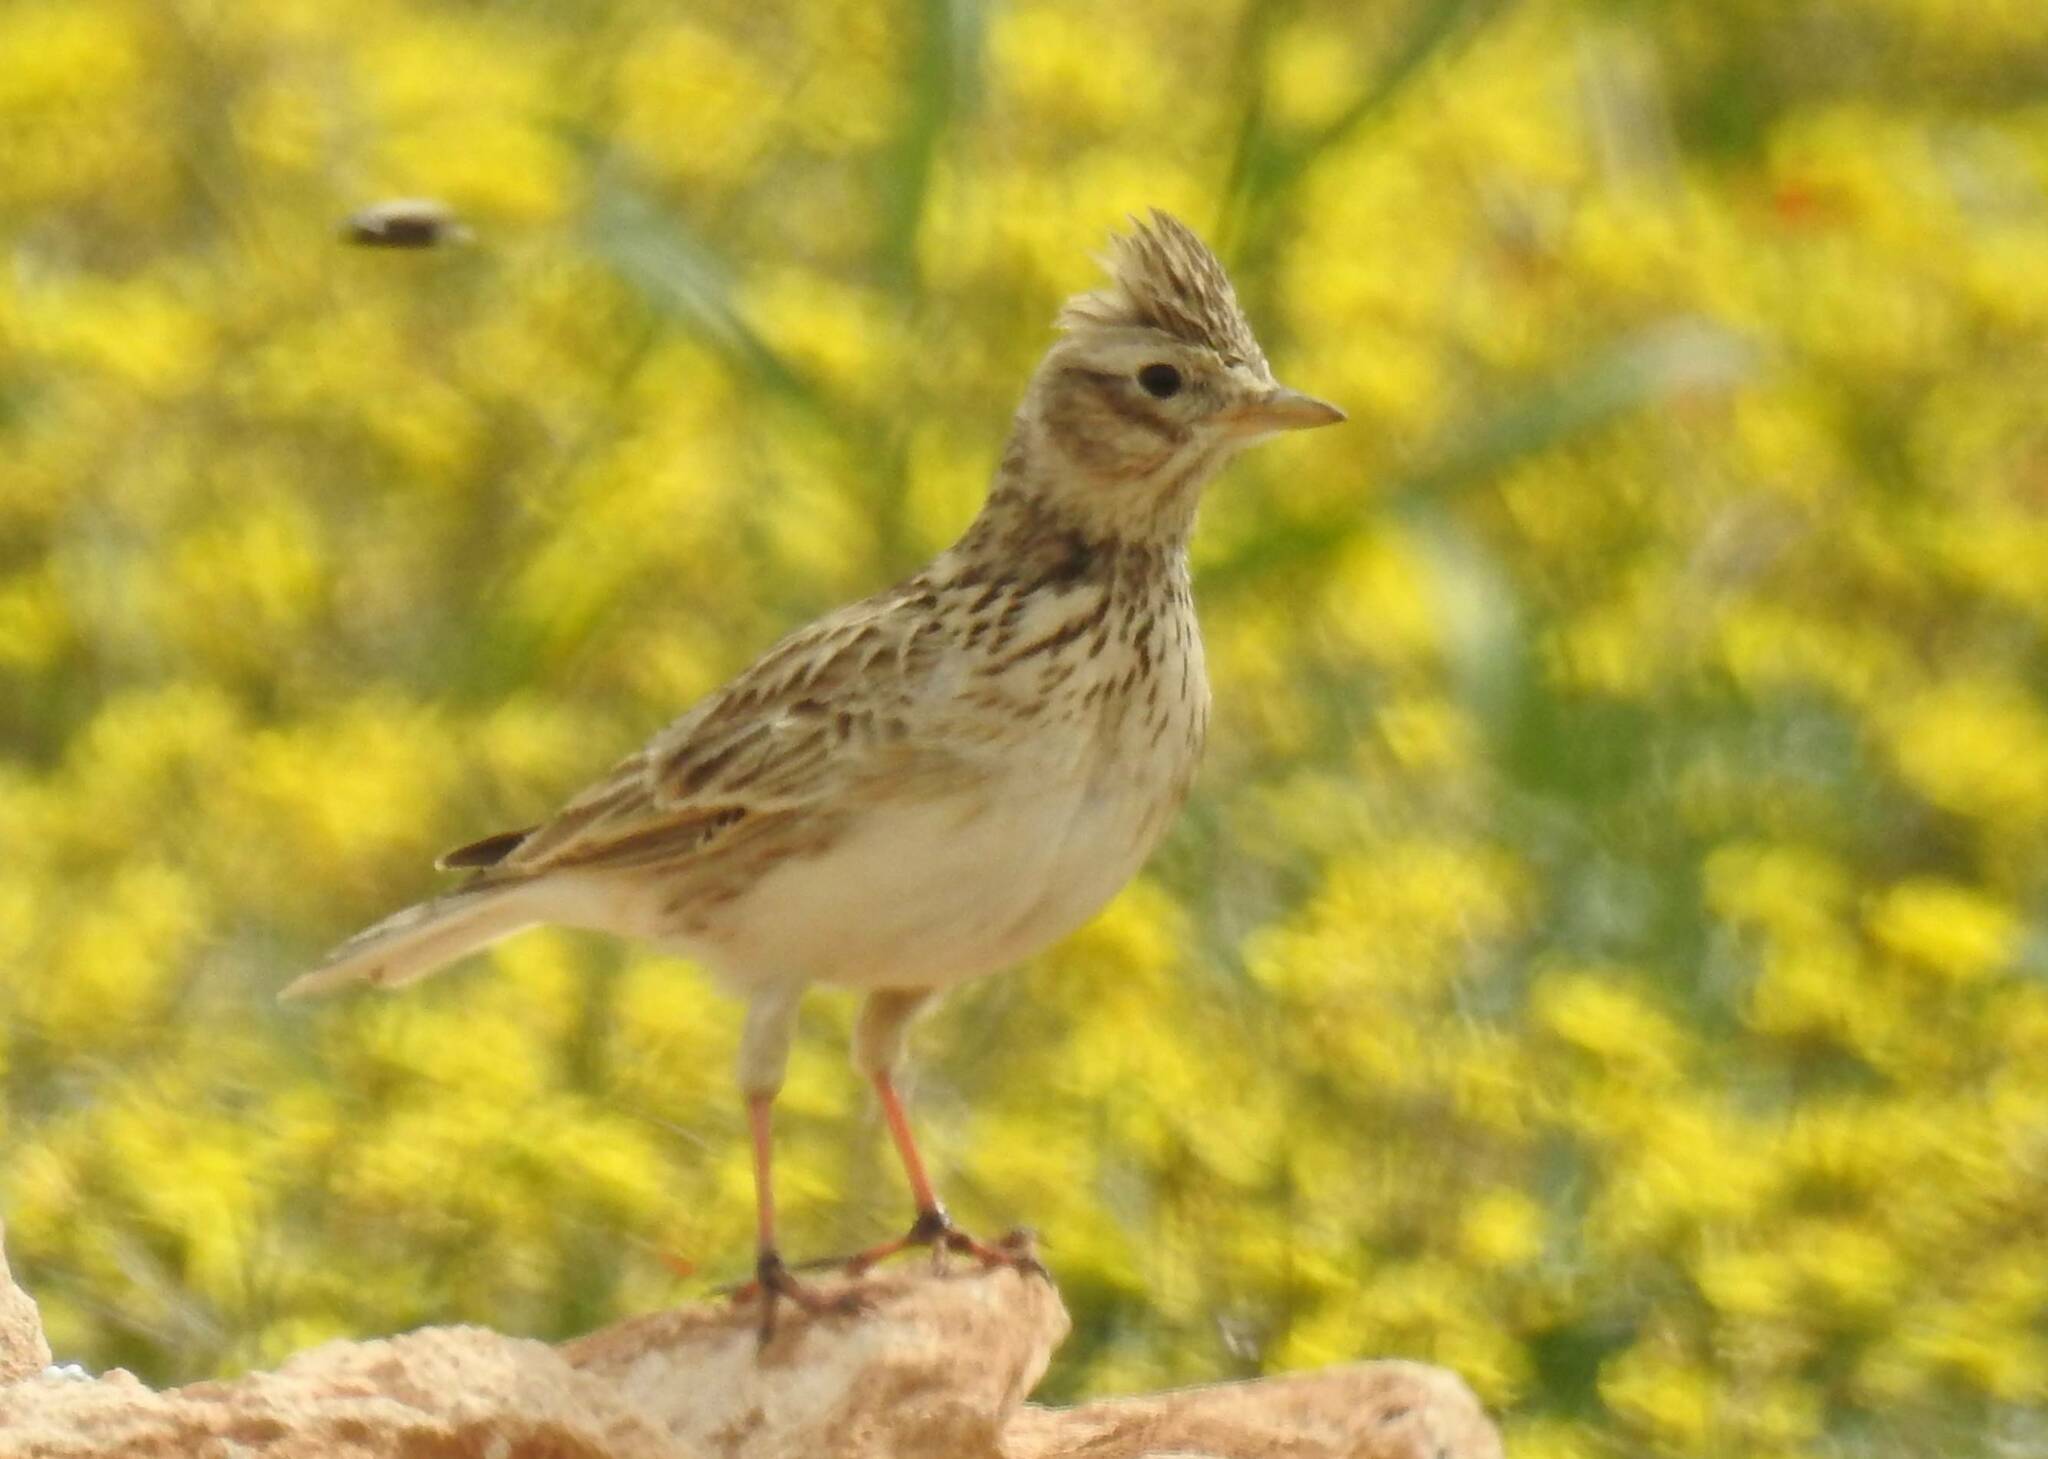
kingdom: Animalia
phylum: Chordata
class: Aves
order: Passeriformes
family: Alaudidae
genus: Alauda
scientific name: Alauda arvensis
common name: Eurasian skylark
